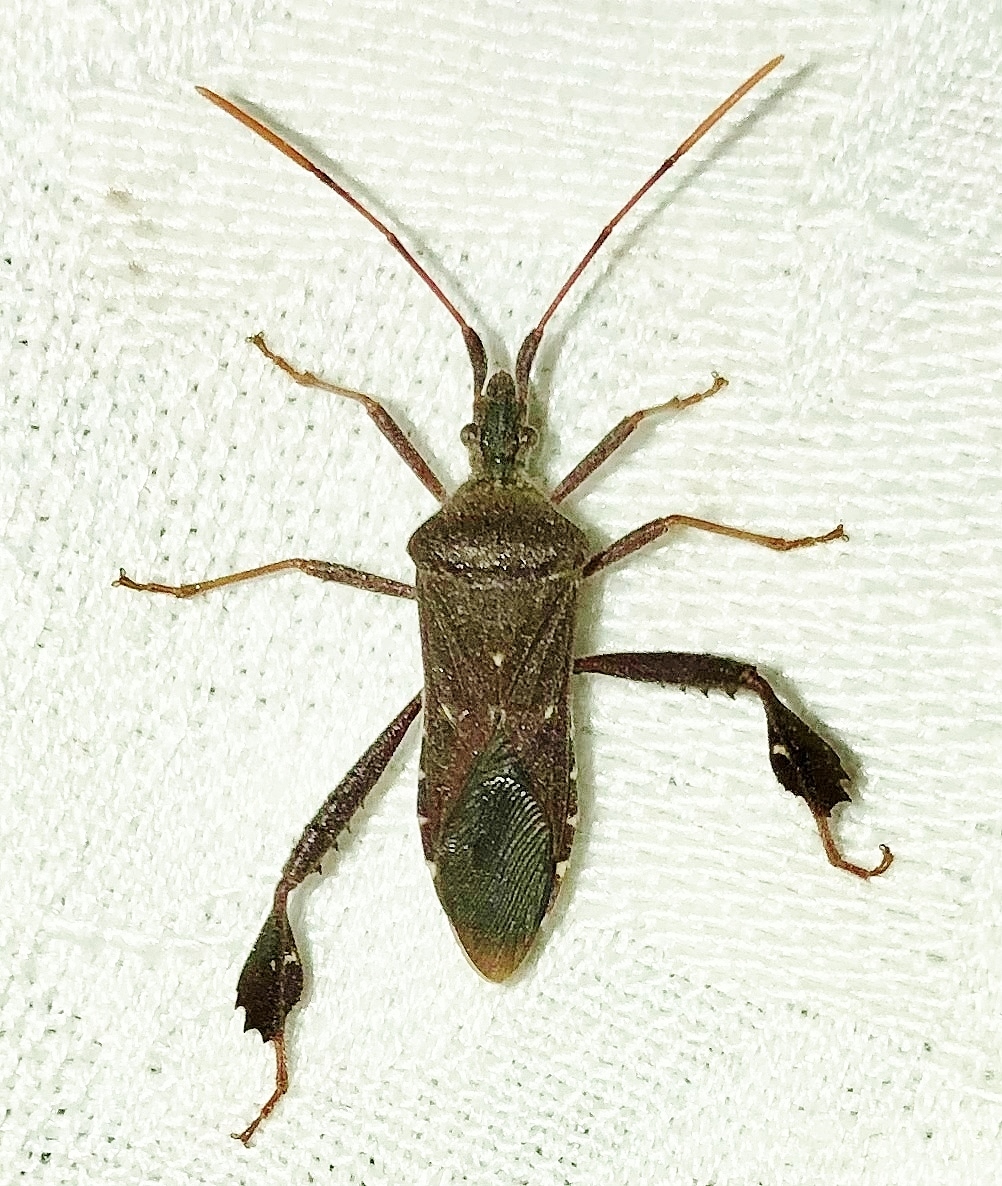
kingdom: Animalia
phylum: Arthropoda
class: Insecta
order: Hemiptera
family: Coreidae
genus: Leptoglossus
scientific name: Leptoglossus oppositus
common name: Northern leaf-footed bug
